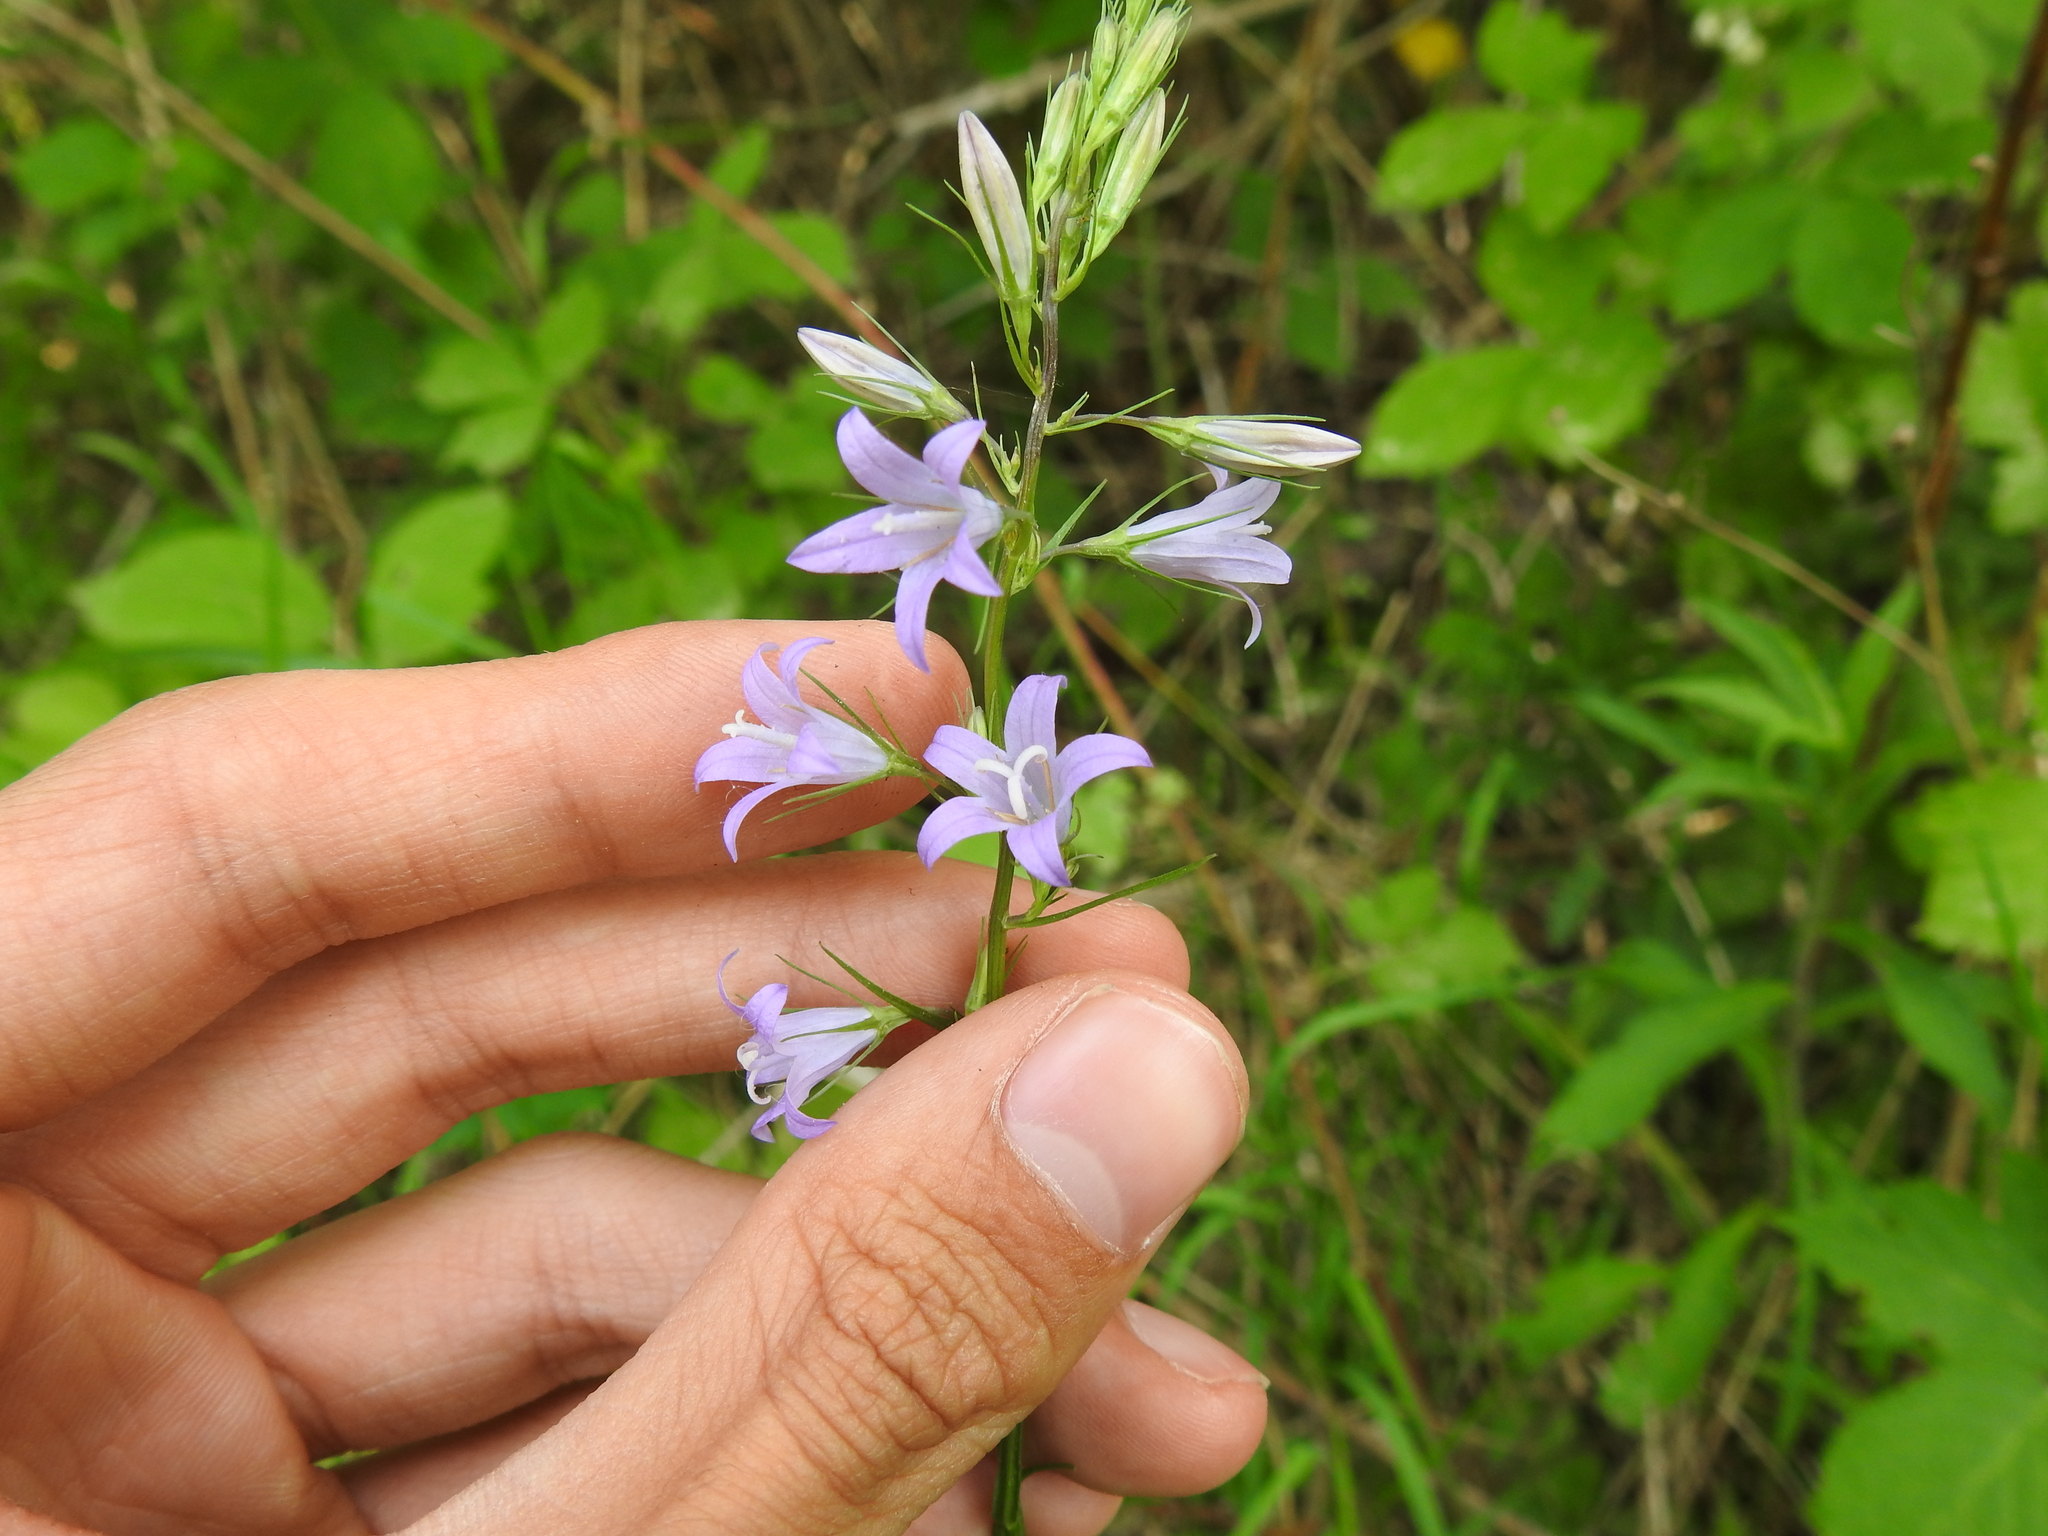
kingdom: Plantae
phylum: Tracheophyta
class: Magnoliopsida
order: Asterales
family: Campanulaceae
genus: Campanula
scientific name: Campanula rapunculus
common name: Rampion bellflower
